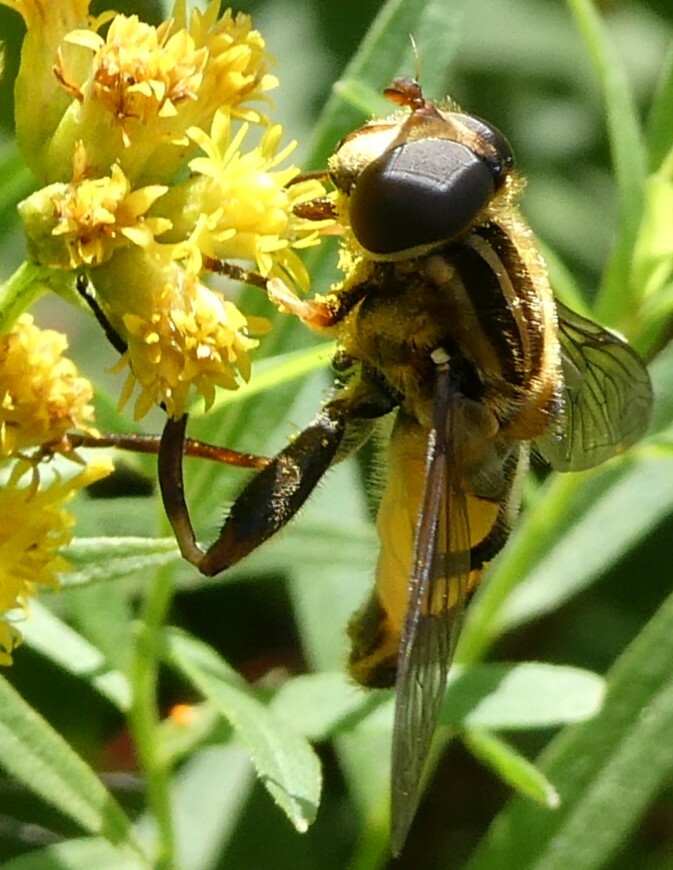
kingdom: Animalia
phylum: Arthropoda
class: Insecta
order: Diptera
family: Syrphidae
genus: Helophilus
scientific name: Helophilus fasciatus
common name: Narrow-headed marsh fly
